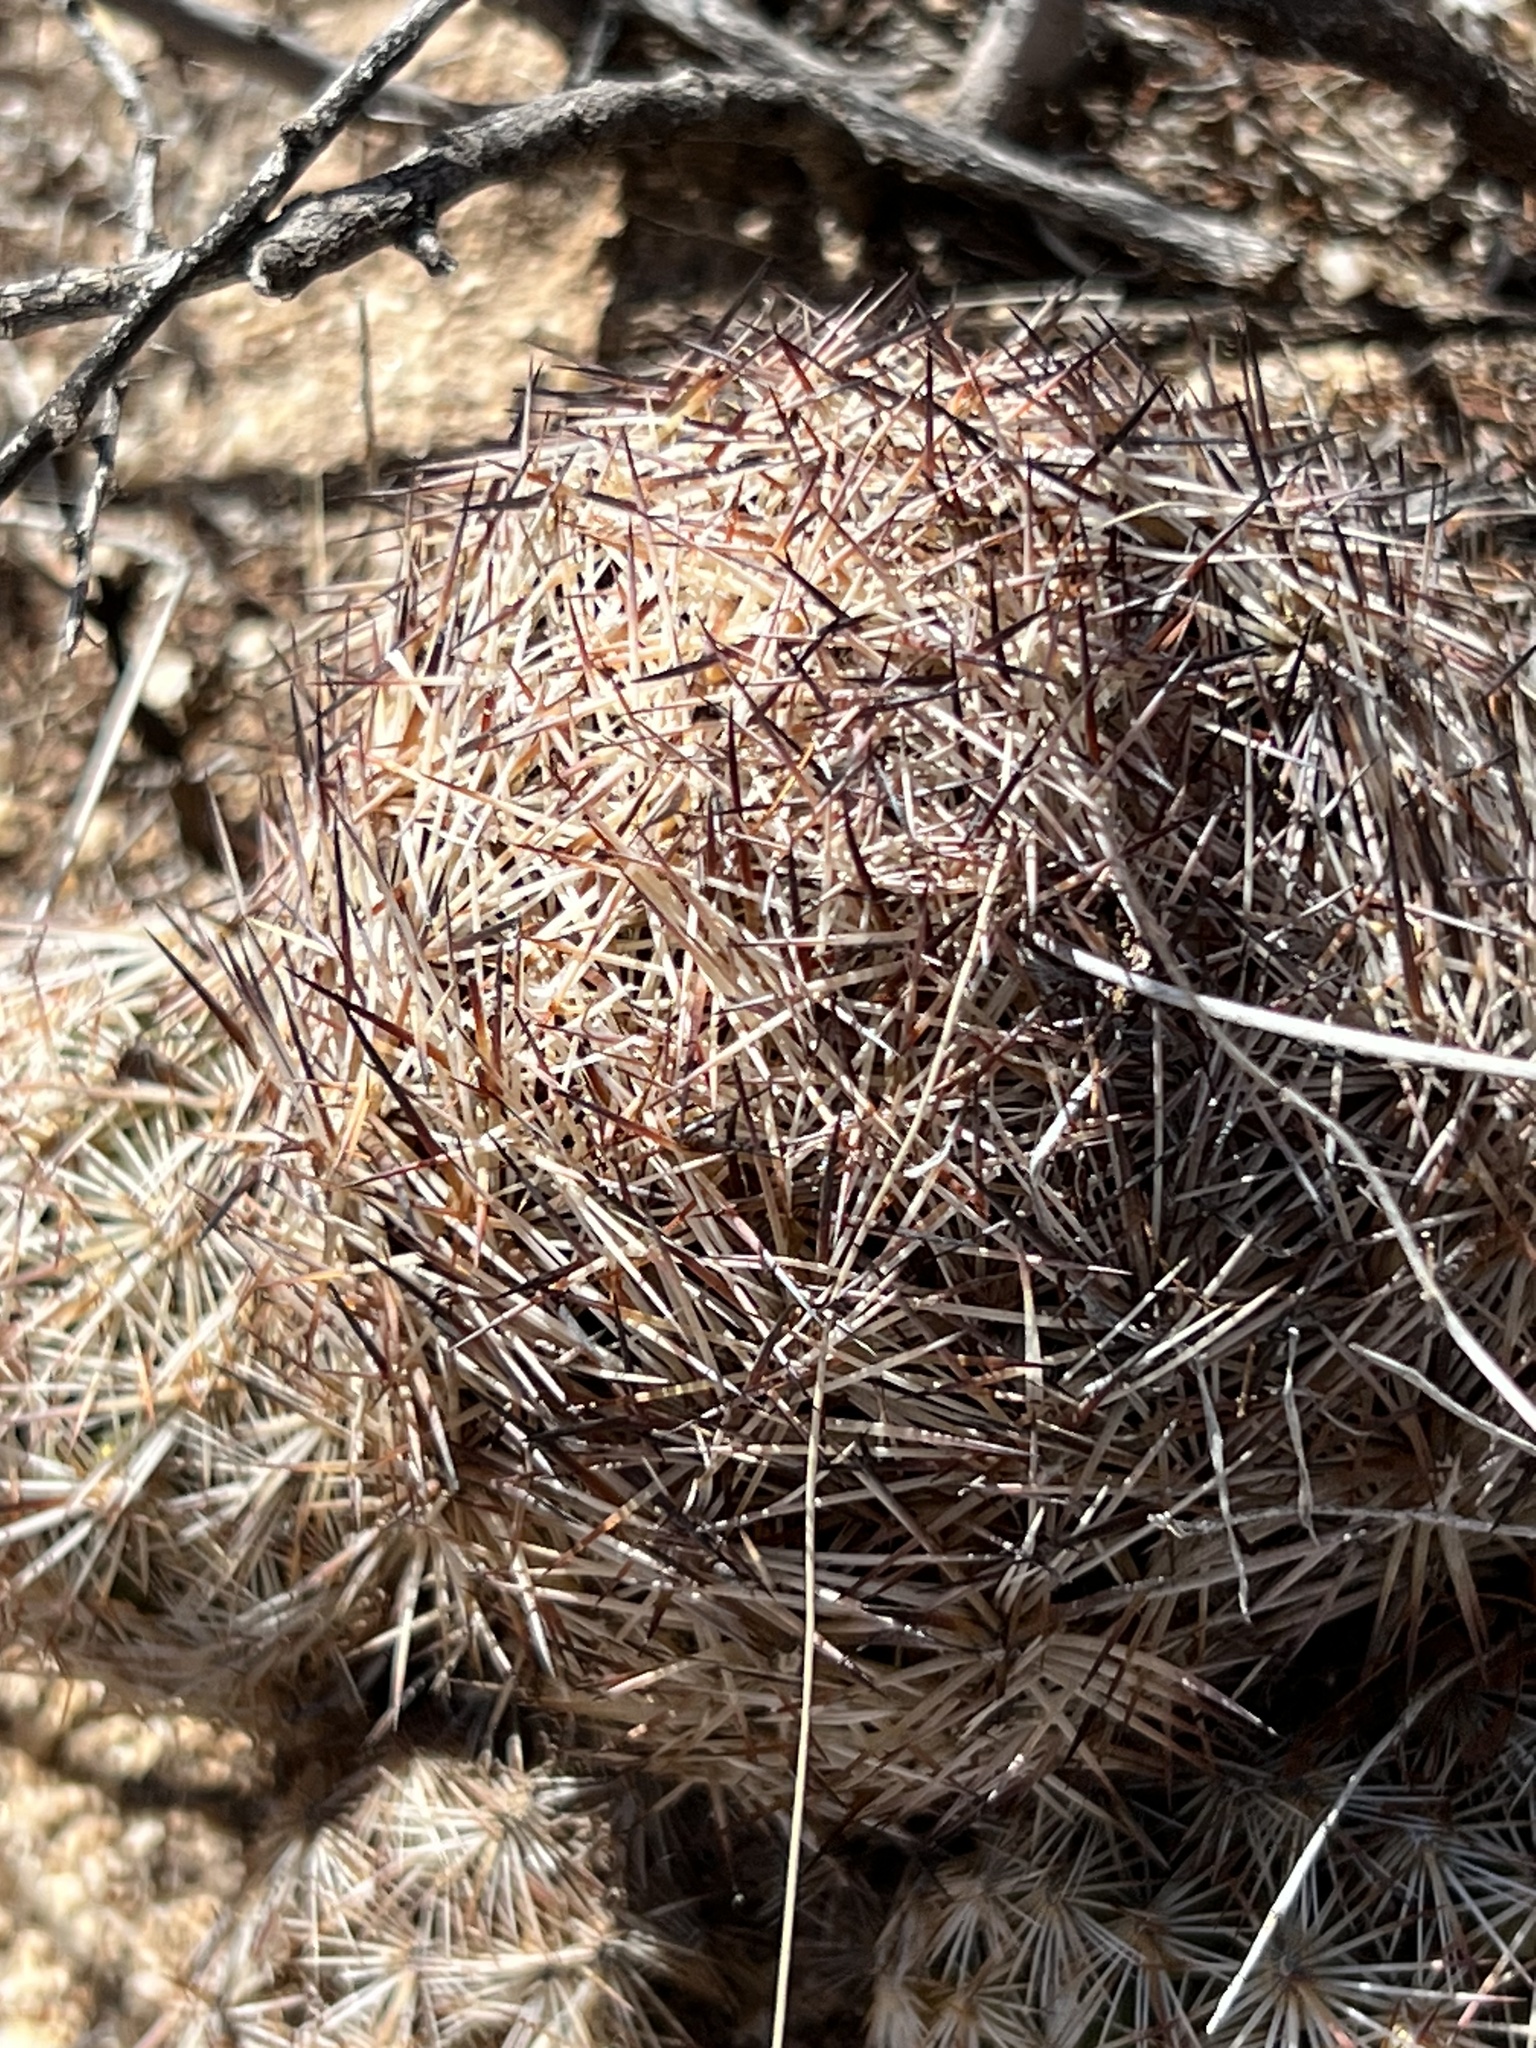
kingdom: Plantae
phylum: Tracheophyta
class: Magnoliopsida
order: Caryophyllales
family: Cactaceae
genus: Sclerocactus
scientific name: Sclerocactus intertextus
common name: White fish-hook cactus
